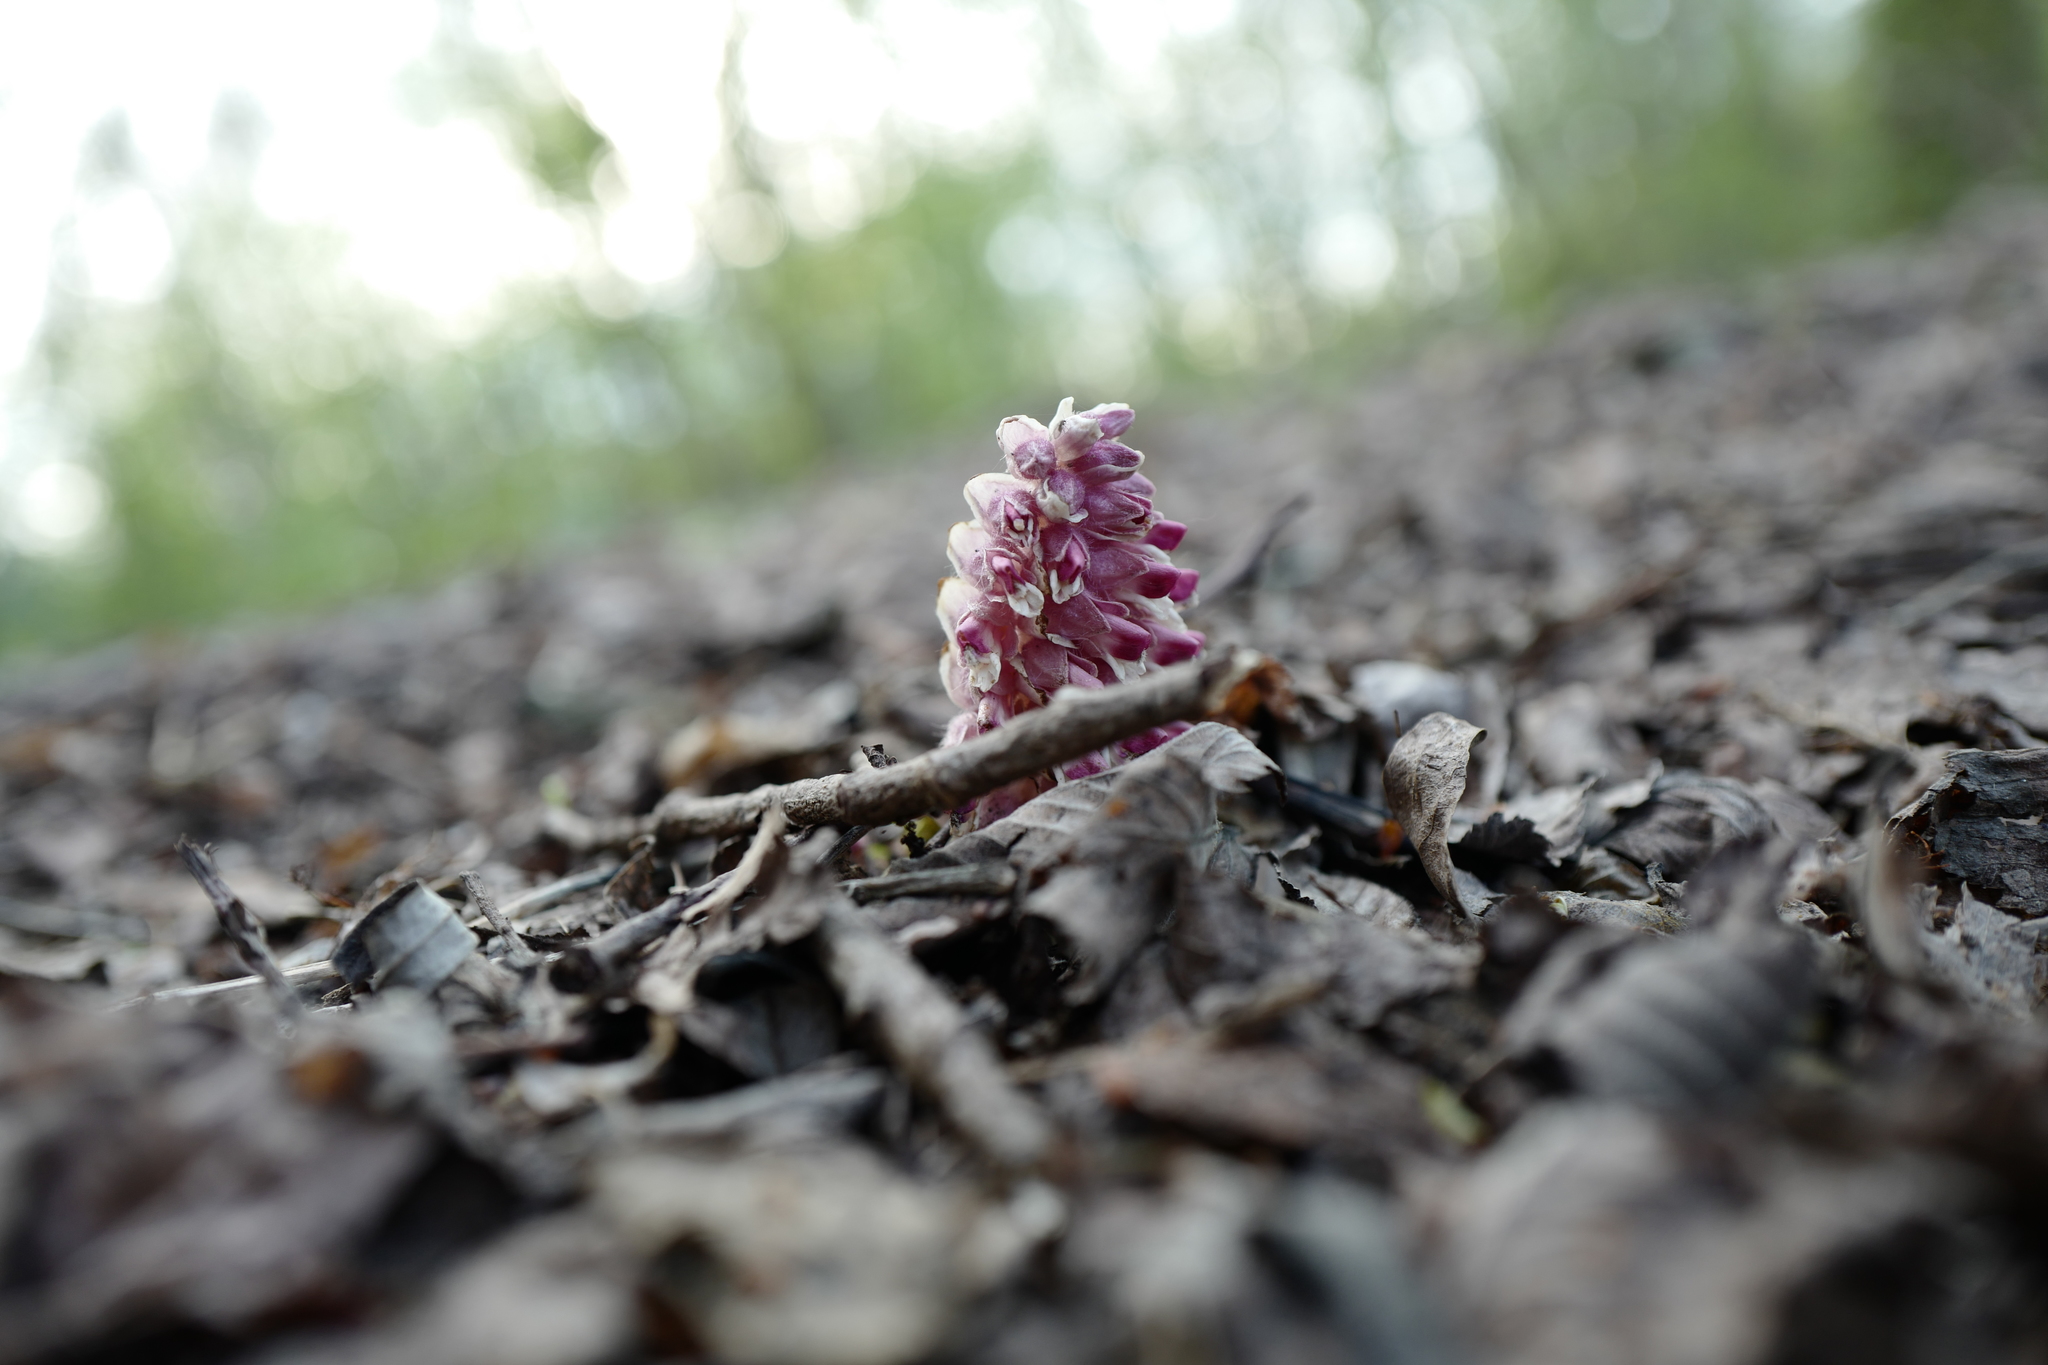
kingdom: Plantae
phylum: Tracheophyta
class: Magnoliopsida
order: Lamiales
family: Orobanchaceae
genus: Lathraea
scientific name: Lathraea squamaria
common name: Toothwort
